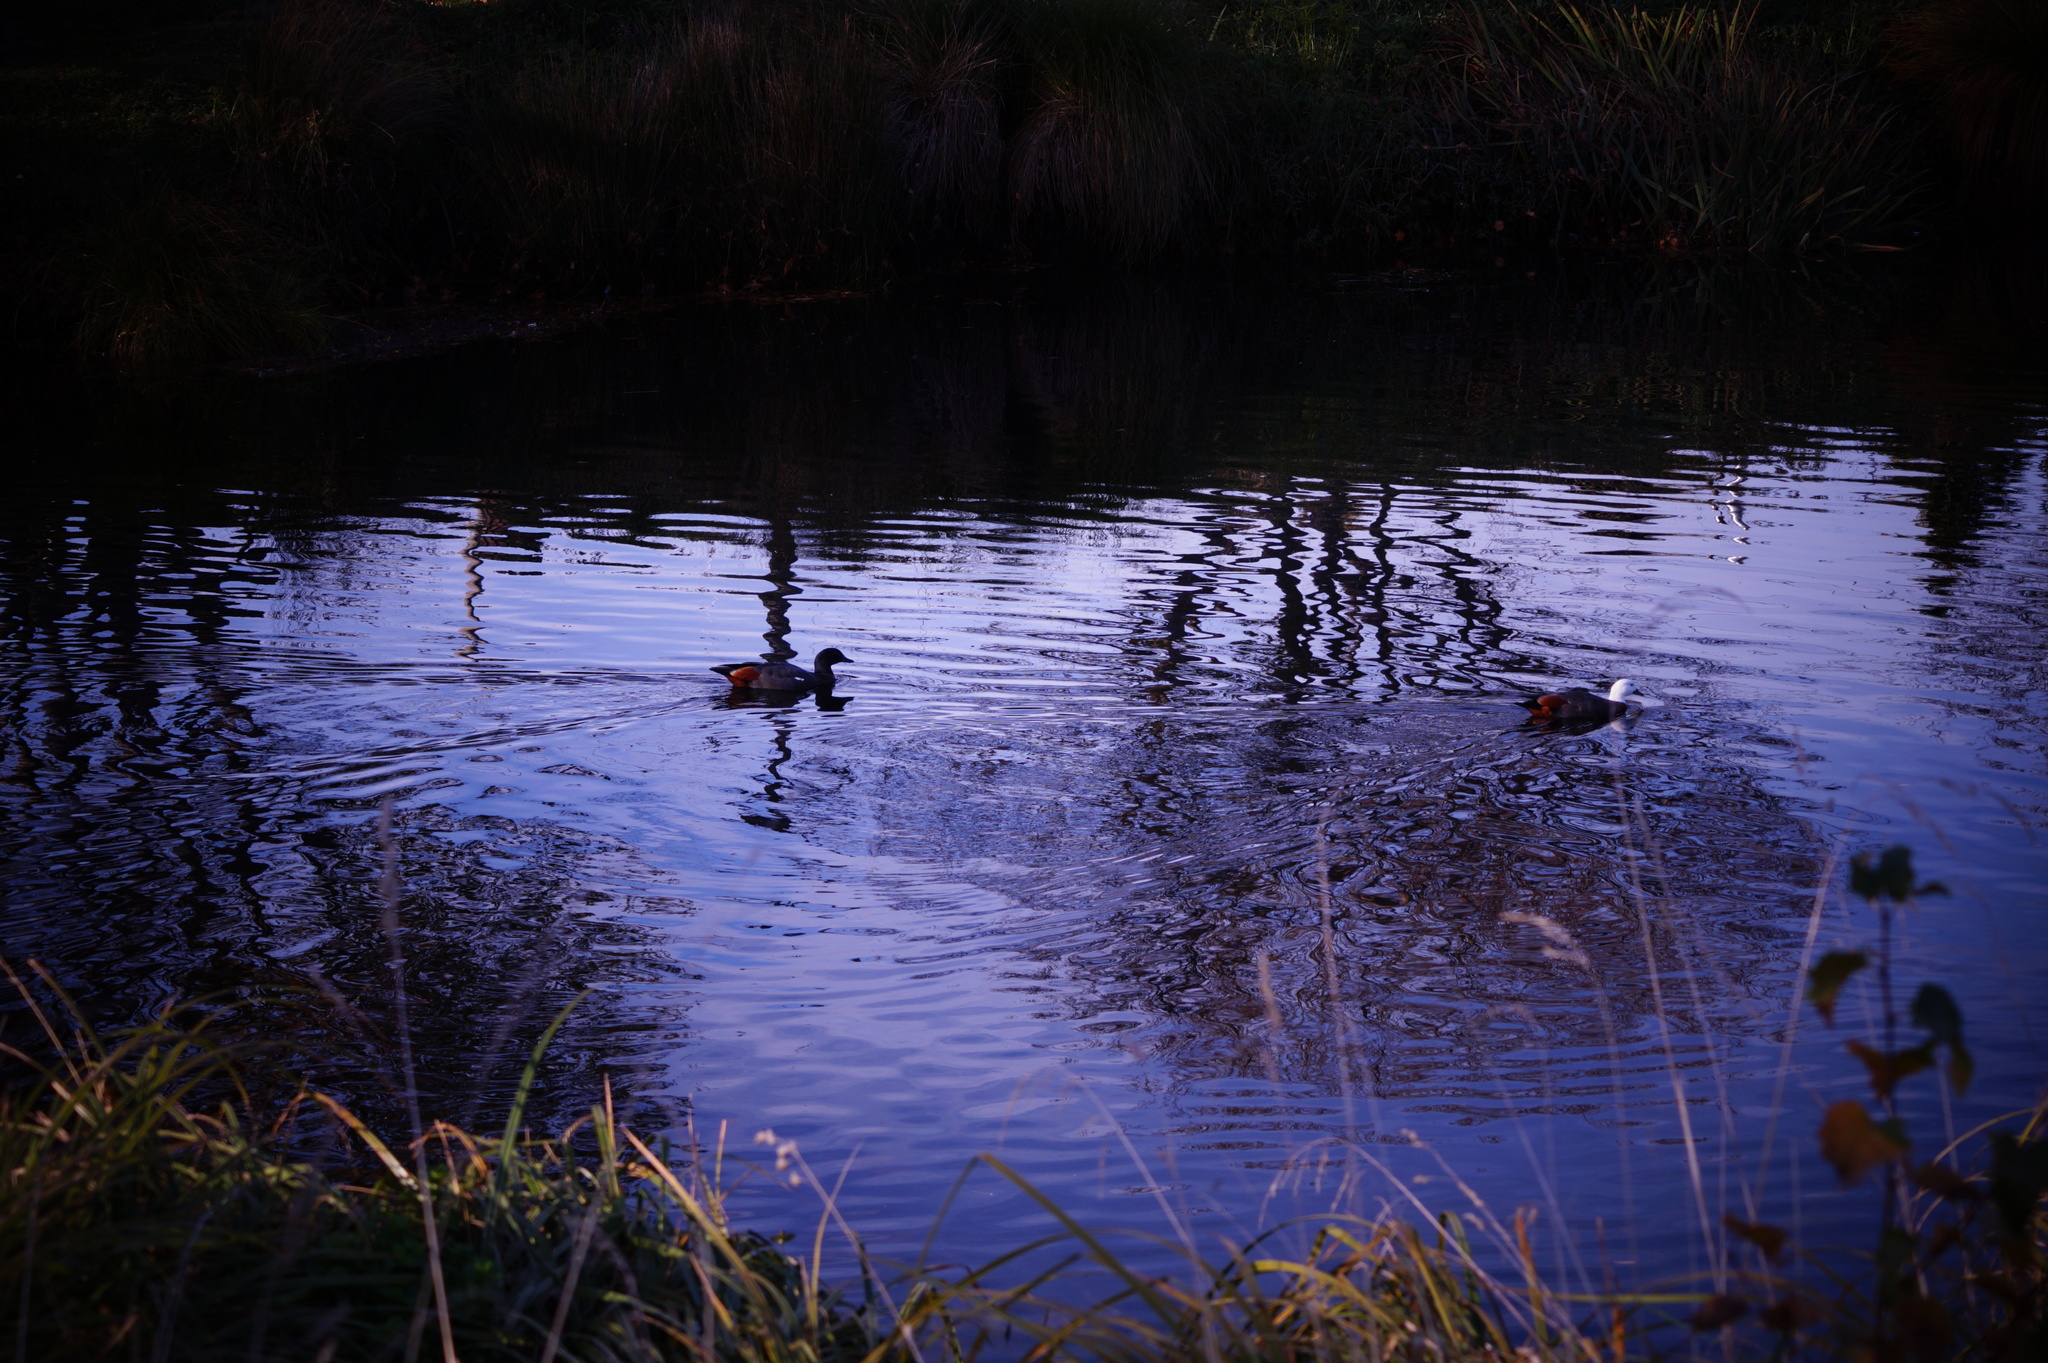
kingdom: Animalia
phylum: Chordata
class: Aves
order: Anseriformes
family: Anatidae
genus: Tadorna
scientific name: Tadorna variegata
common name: Paradise shelduck
